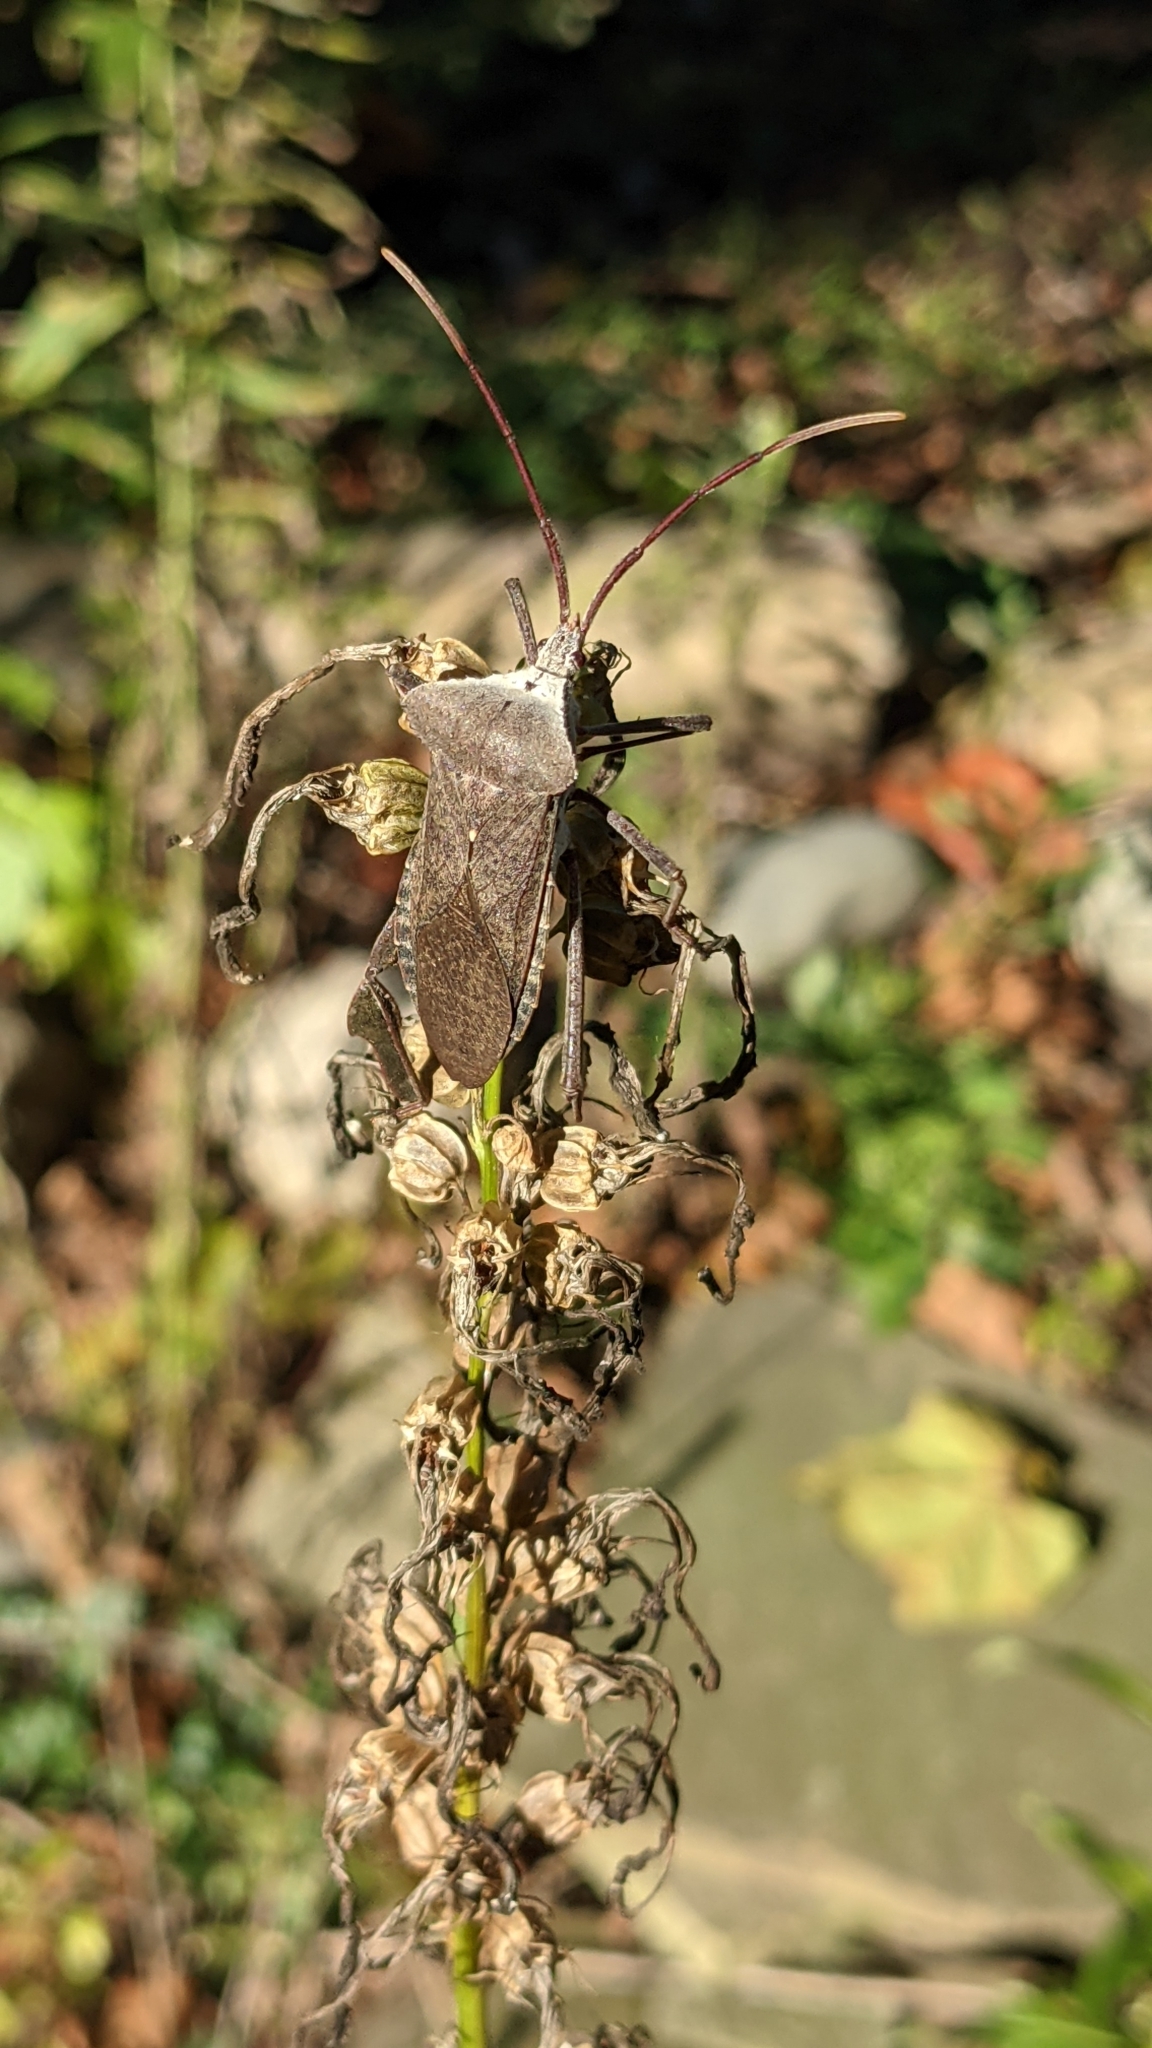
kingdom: Animalia
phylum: Arthropoda
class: Insecta
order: Hemiptera
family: Coreidae
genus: Acanthocephala
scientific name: Acanthocephala declivis
